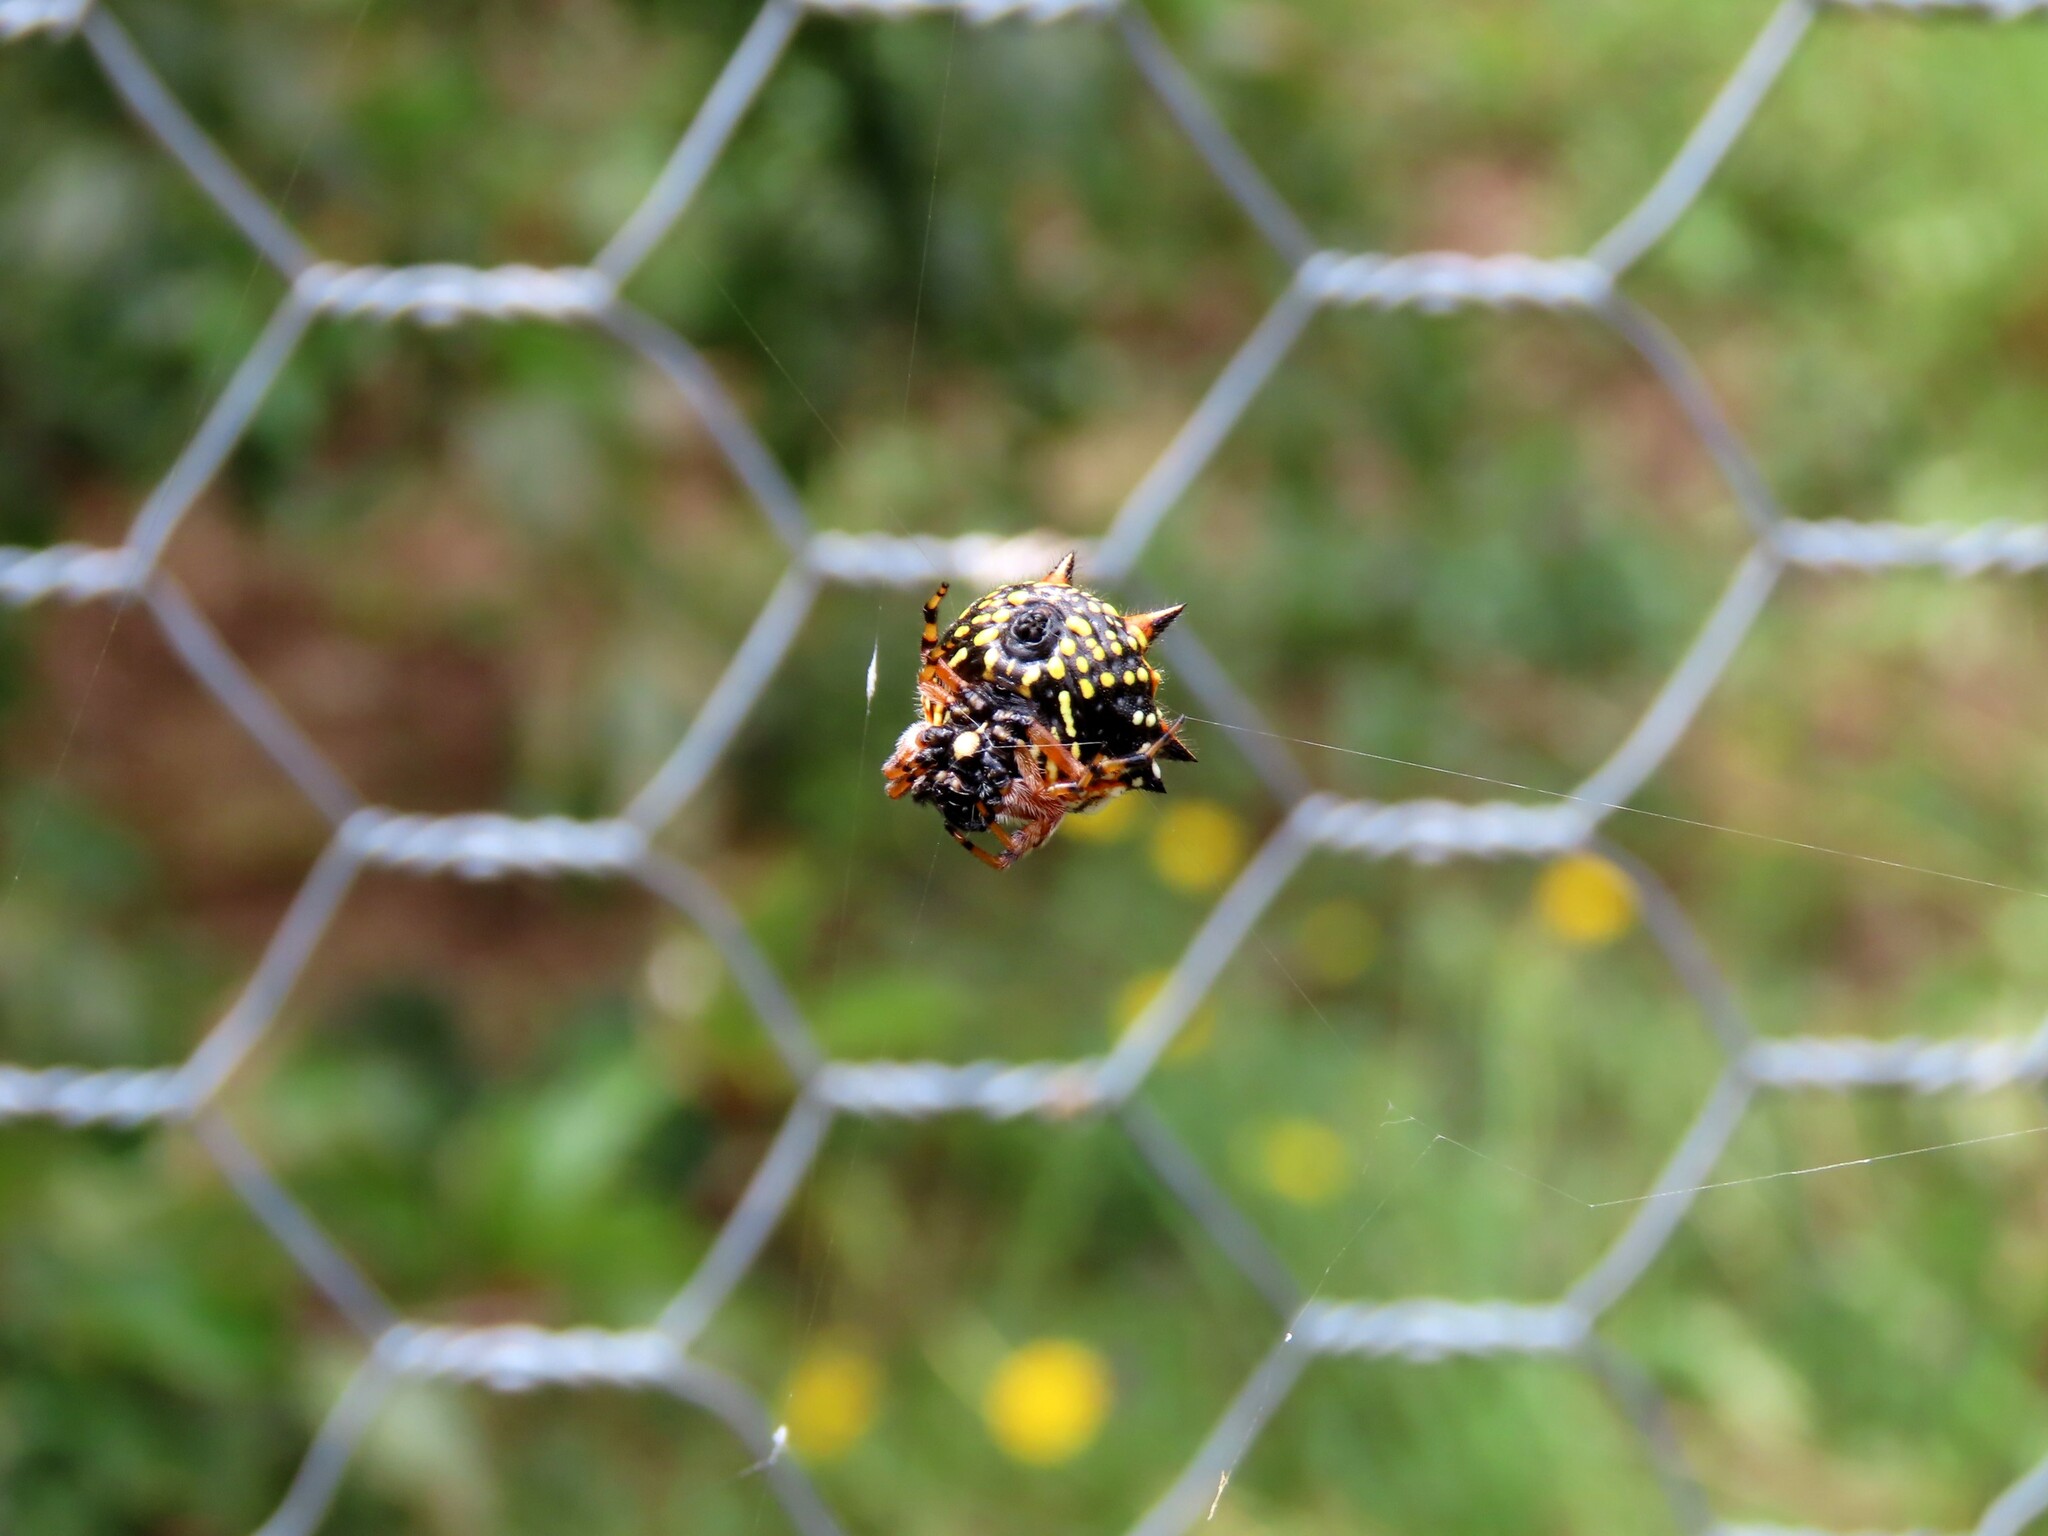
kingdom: Animalia
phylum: Arthropoda
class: Arachnida
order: Araneae
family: Araneidae
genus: Austracantha
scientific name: Austracantha minax
